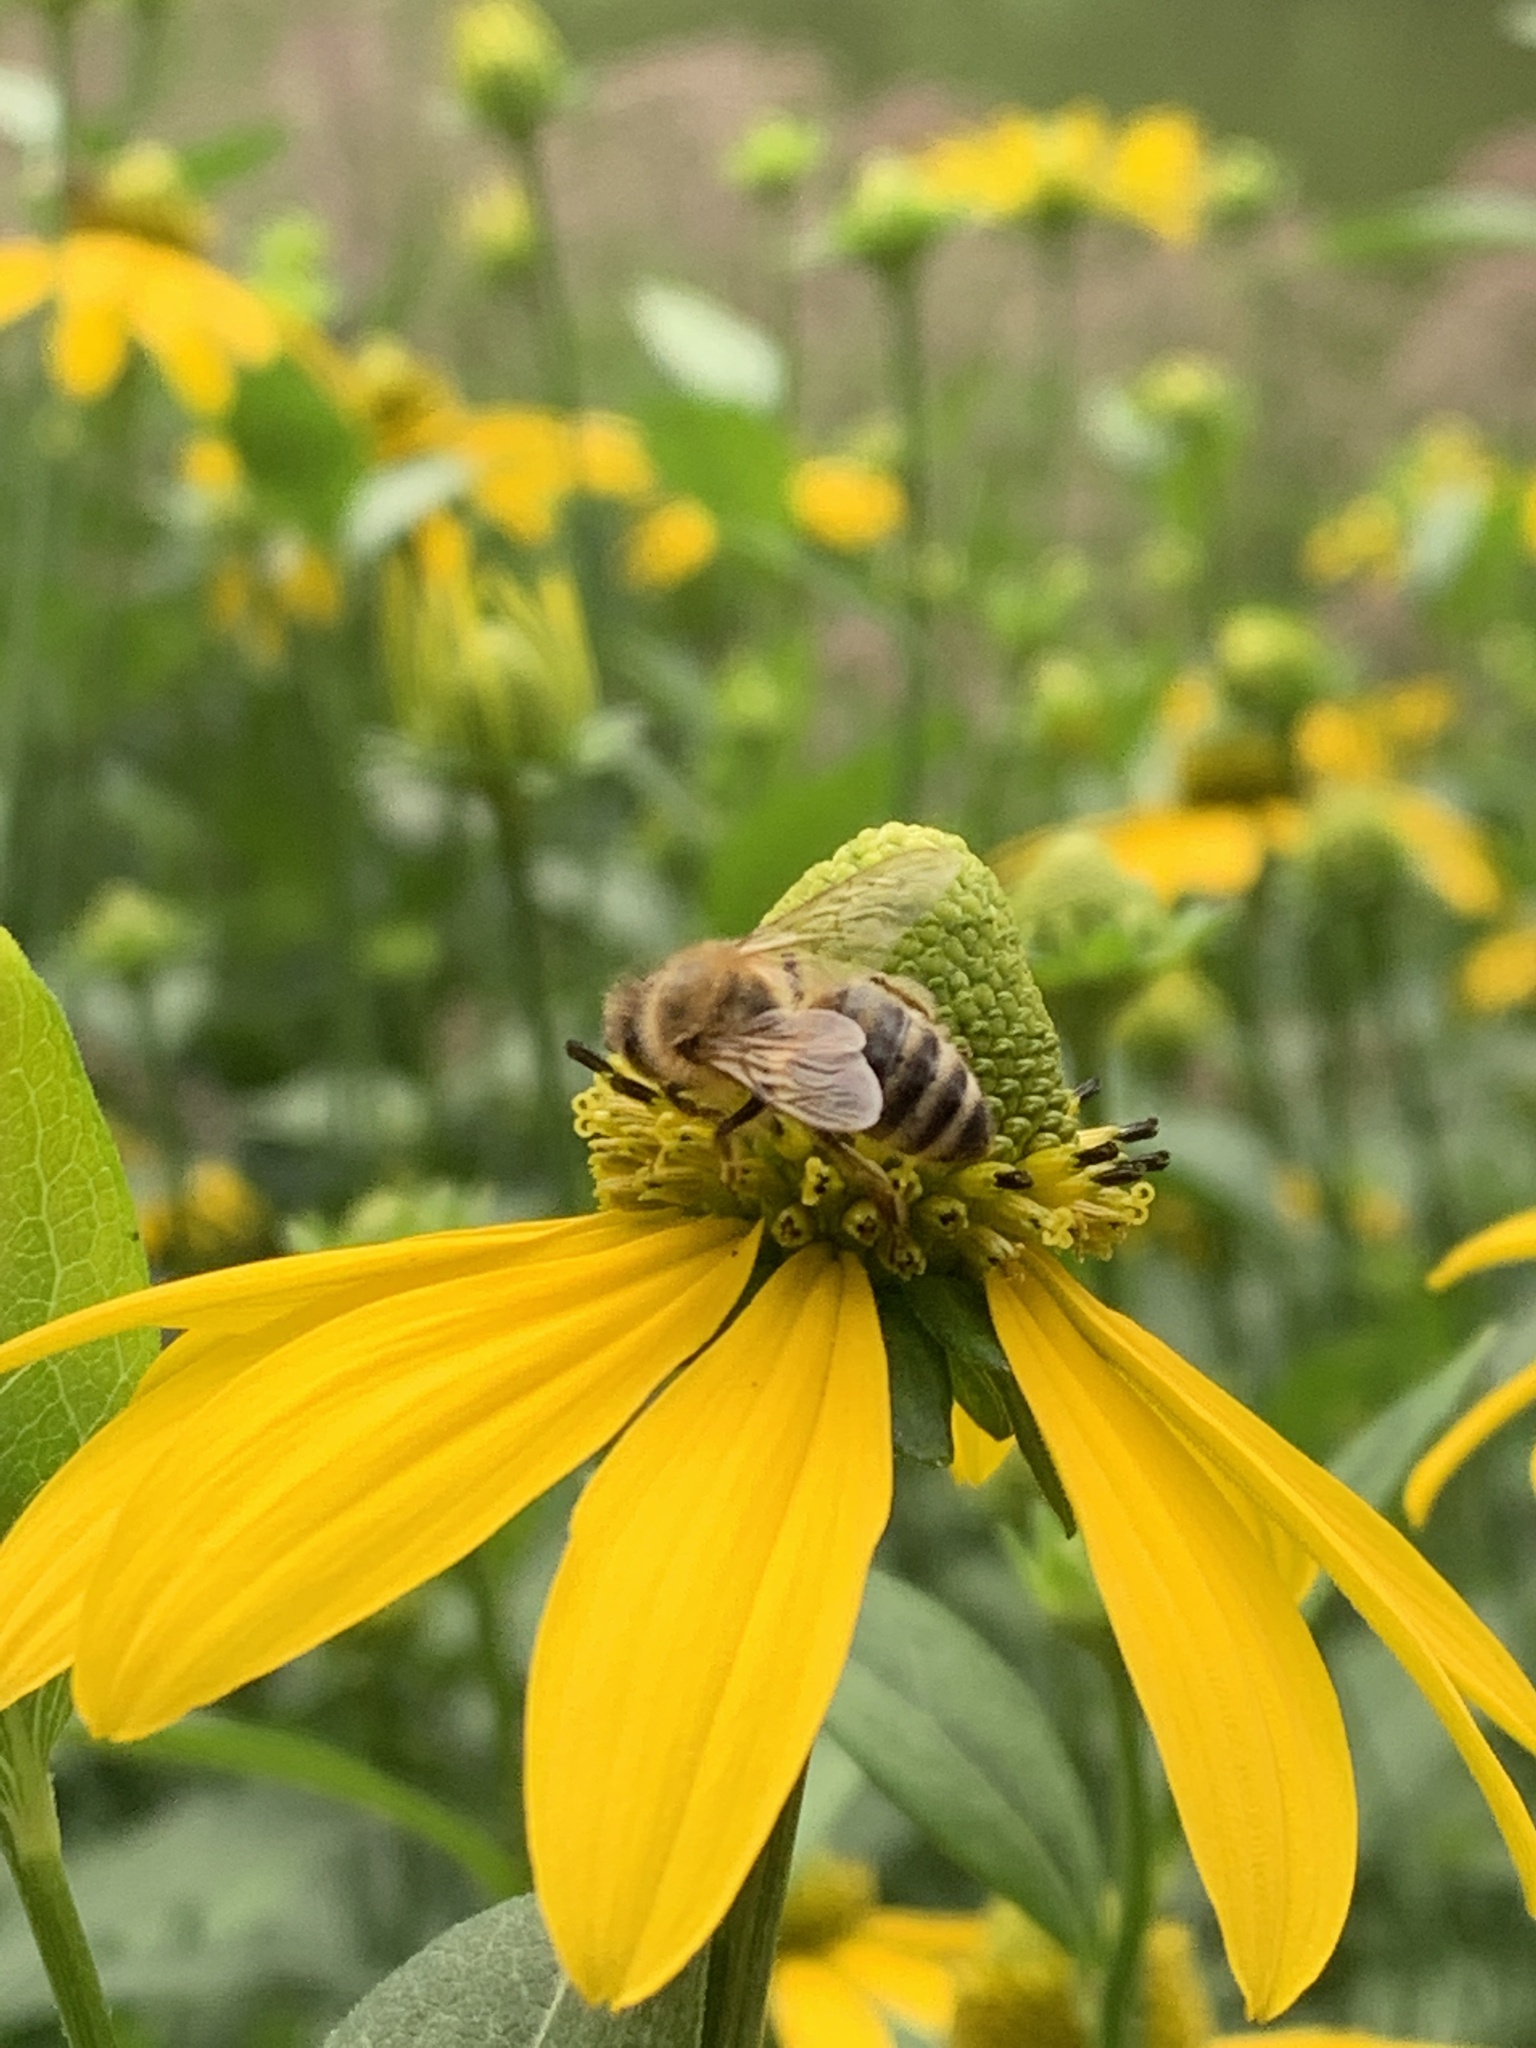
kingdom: Animalia
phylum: Arthropoda
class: Insecta
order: Hymenoptera
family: Apidae
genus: Apis
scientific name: Apis mellifera
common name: Honey bee
